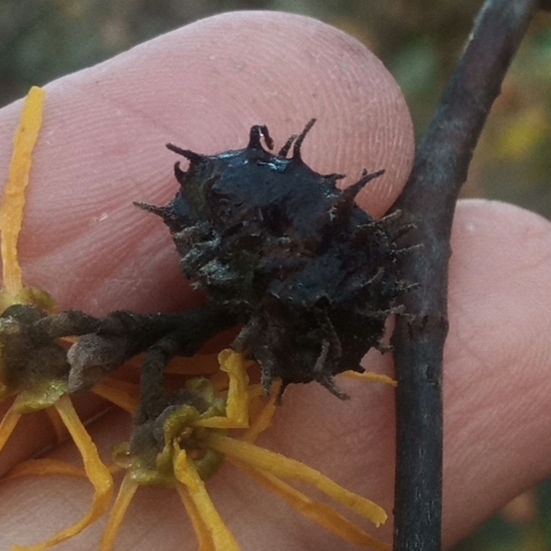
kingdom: Animalia
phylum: Arthropoda
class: Insecta
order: Hemiptera
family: Aphididae
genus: Hamamelistes
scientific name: Hamamelistes spinosus
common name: Witch hazel gall aphid
